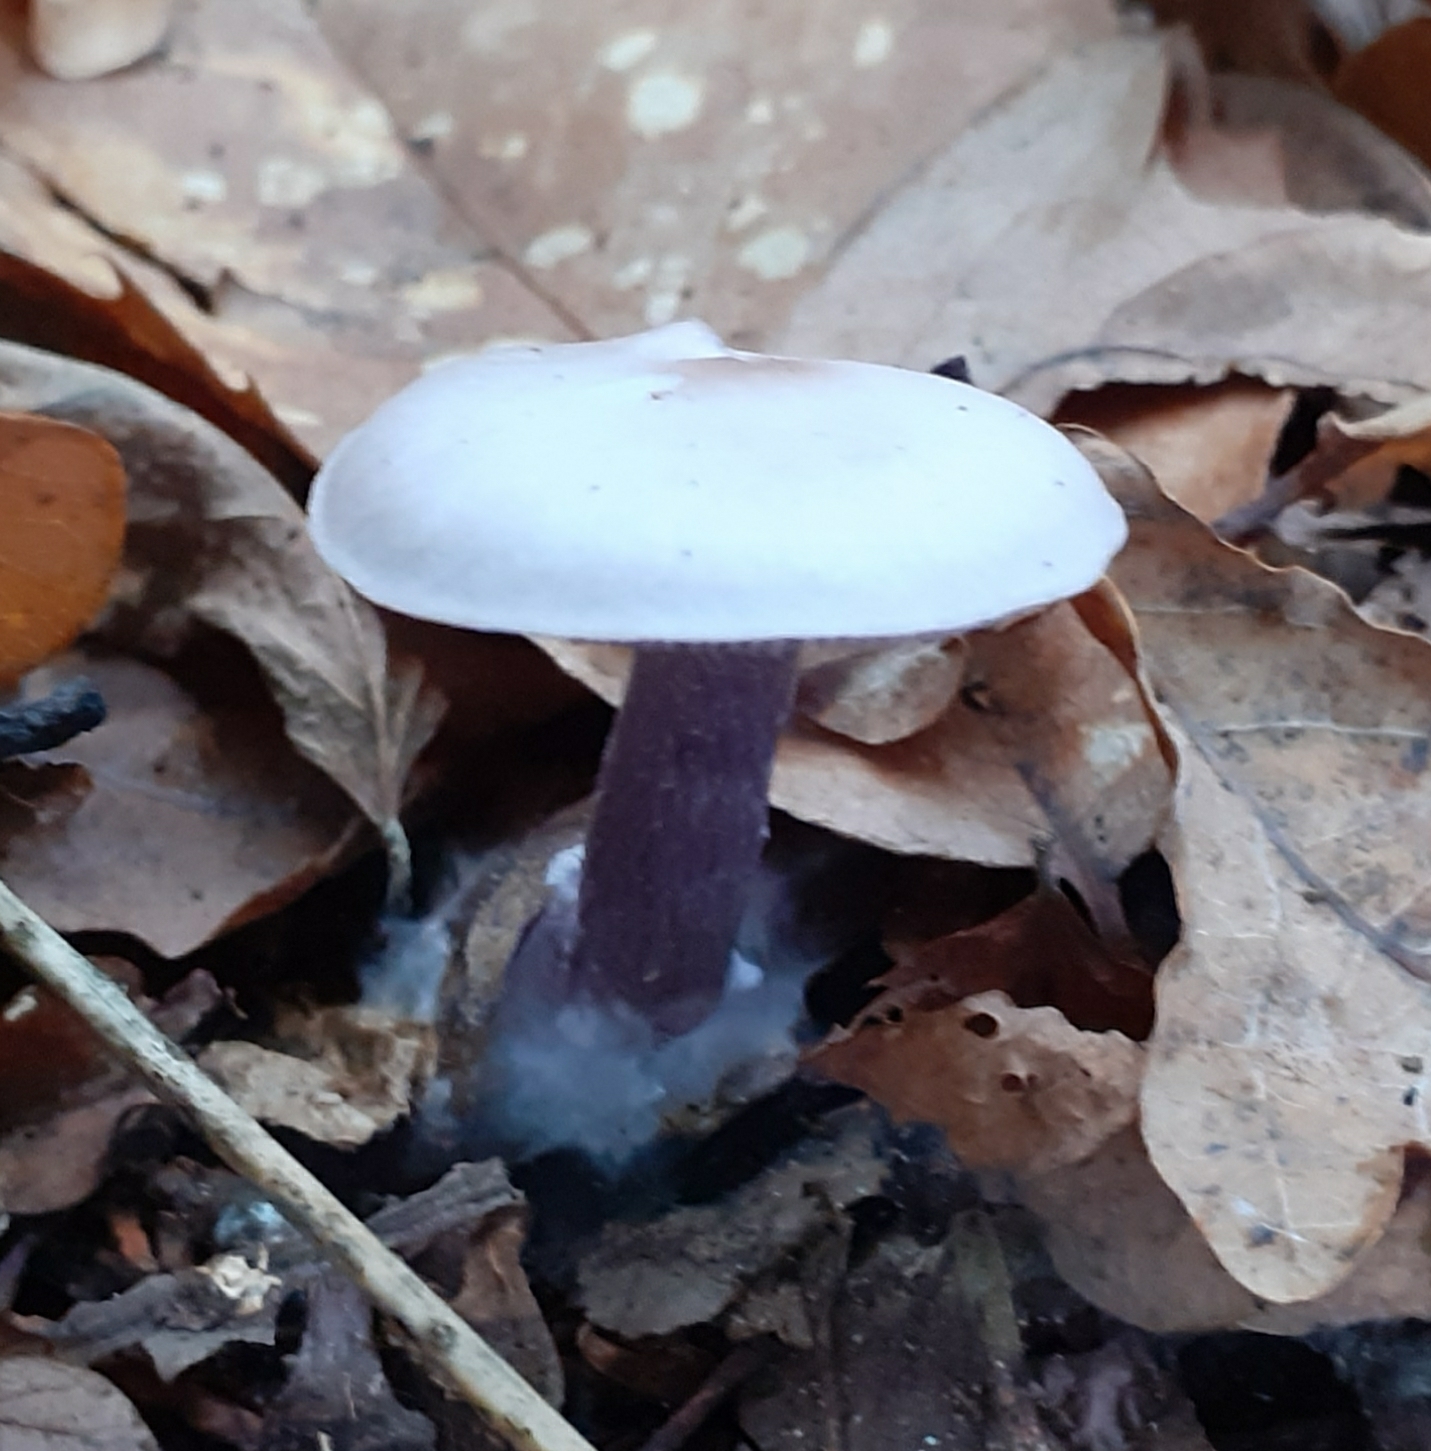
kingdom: Fungi
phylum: Basidiomycota
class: Agaricomycetes
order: Agaricales
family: Tricholomataceae
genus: Collybia
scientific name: Collybia
